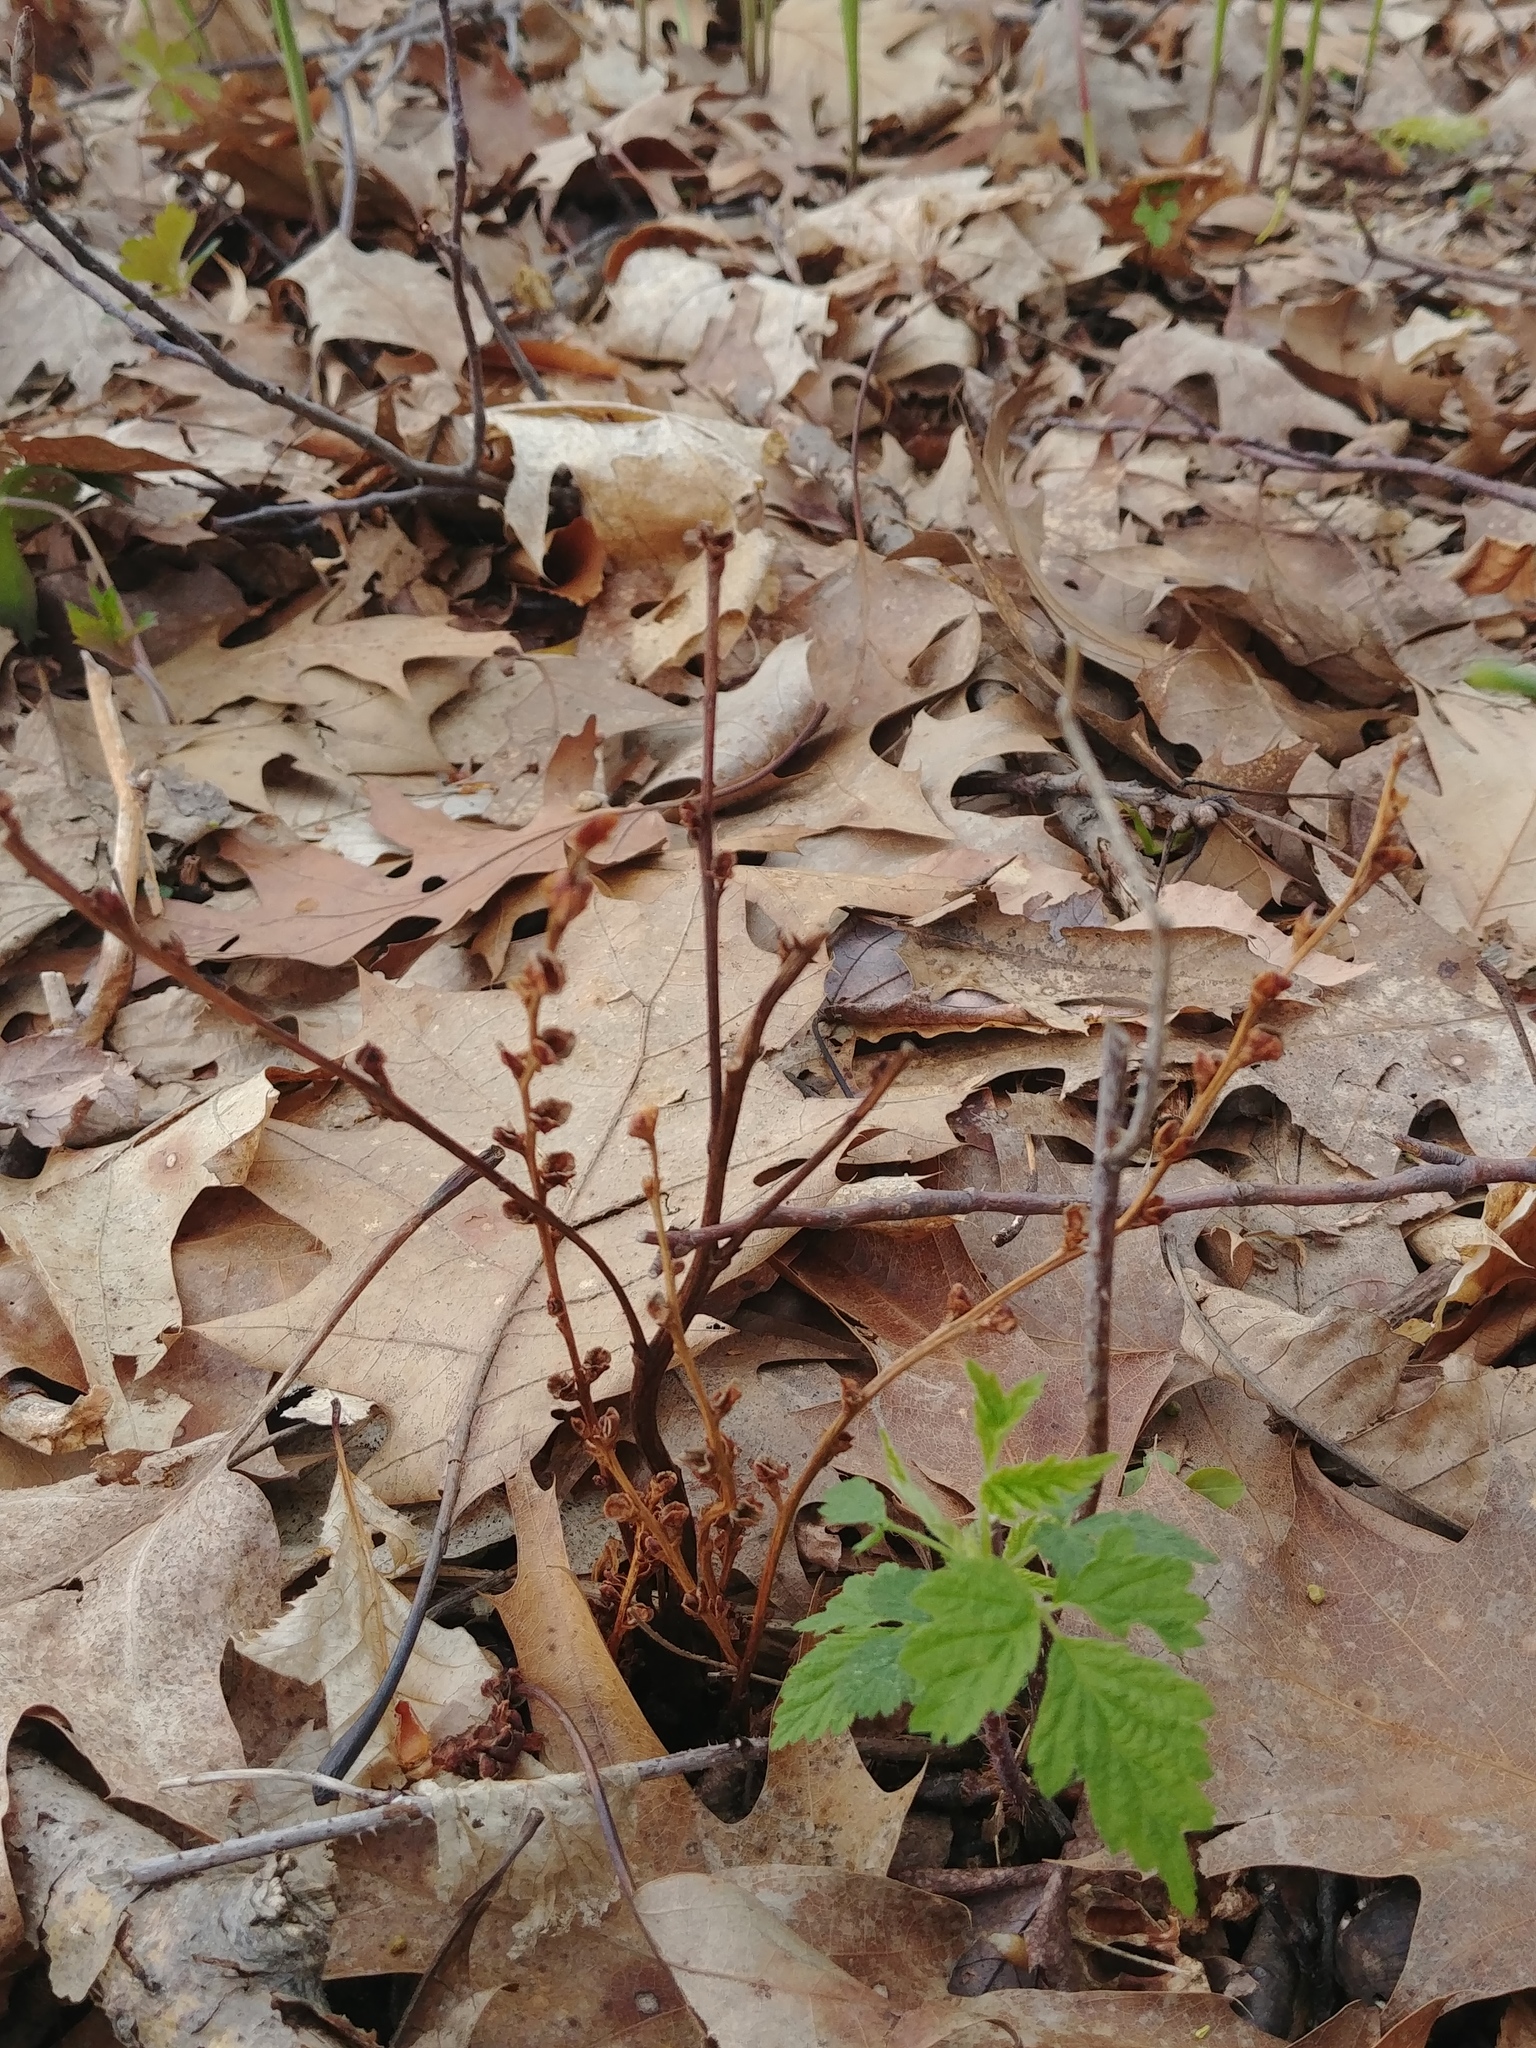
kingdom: Plantae
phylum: Tracheophyta
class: Magnoliopsida
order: Lamiales
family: Orobanchaceae
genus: Epifagus
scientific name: Epifagus virginiana
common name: Beechdrops
